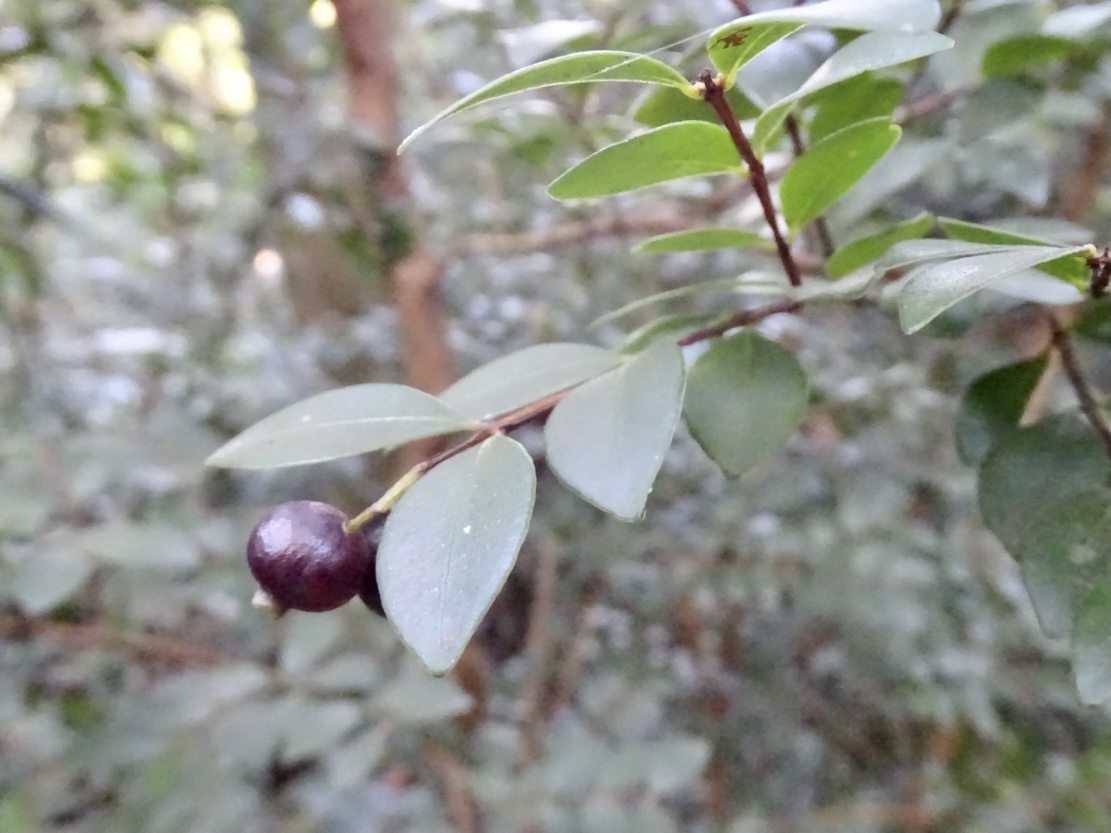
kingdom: Plantae
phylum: Tracheophyta
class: Magnoliopsida
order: Myrtales
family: Myrtaceae
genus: Syzygium
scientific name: Syzygium buxifolium
